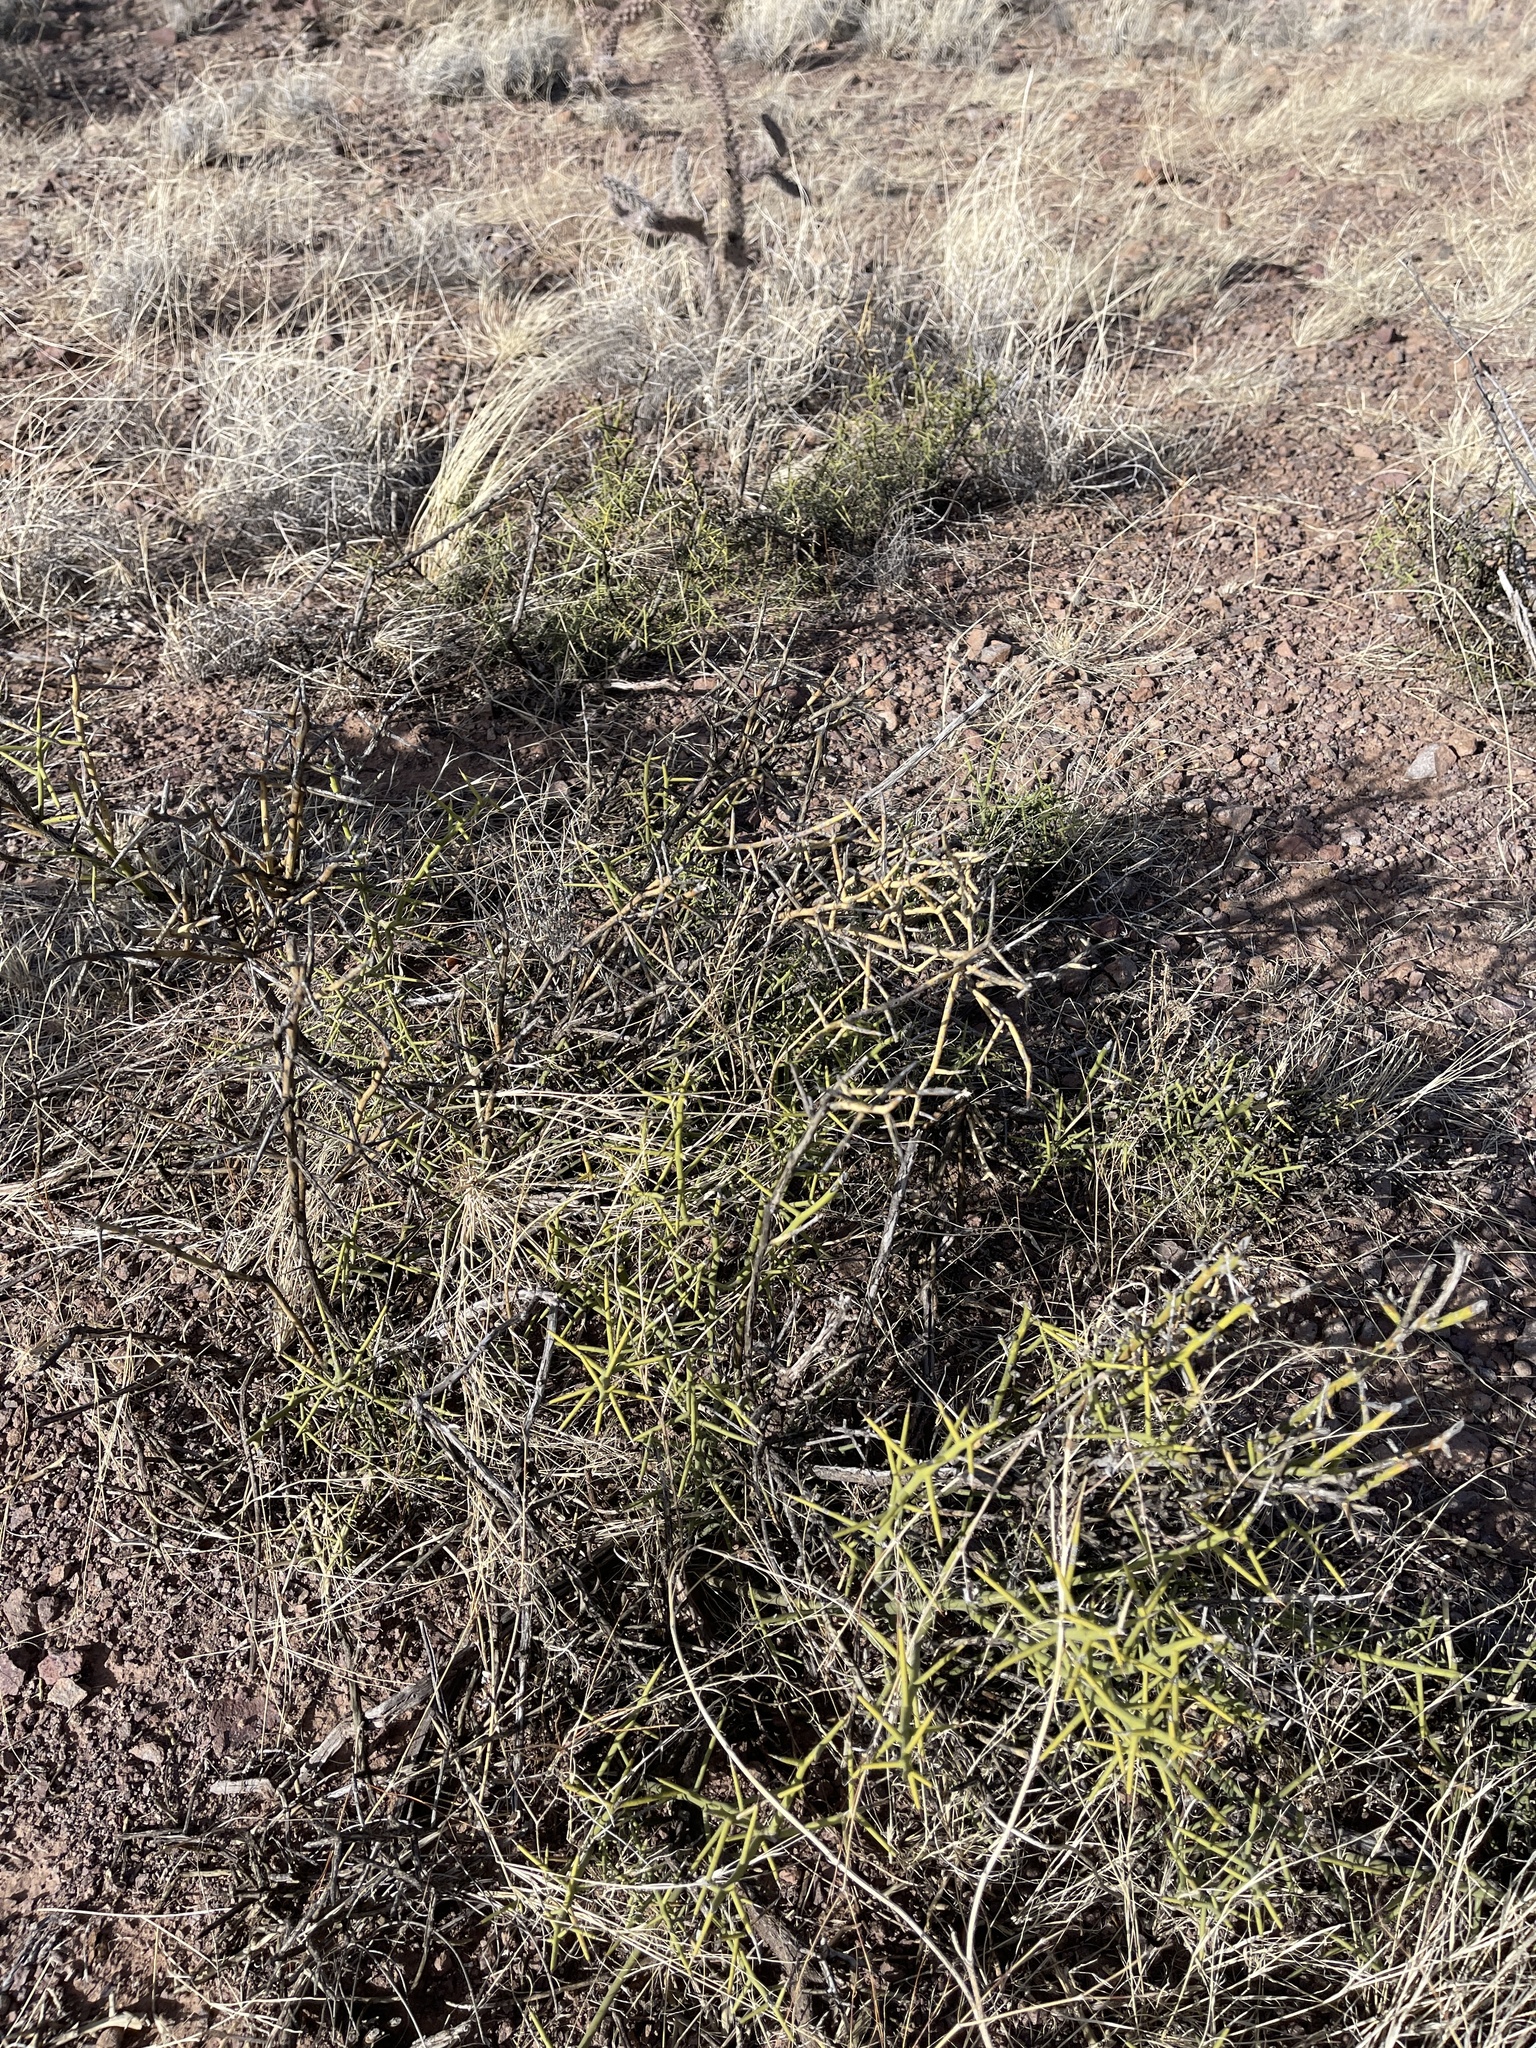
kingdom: Plantae
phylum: Tracheophyta
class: Magnoliopsida
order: Brassicales
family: Koeberliniaceae
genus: Koeberlinia
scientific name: Koeberlinia spinosa
